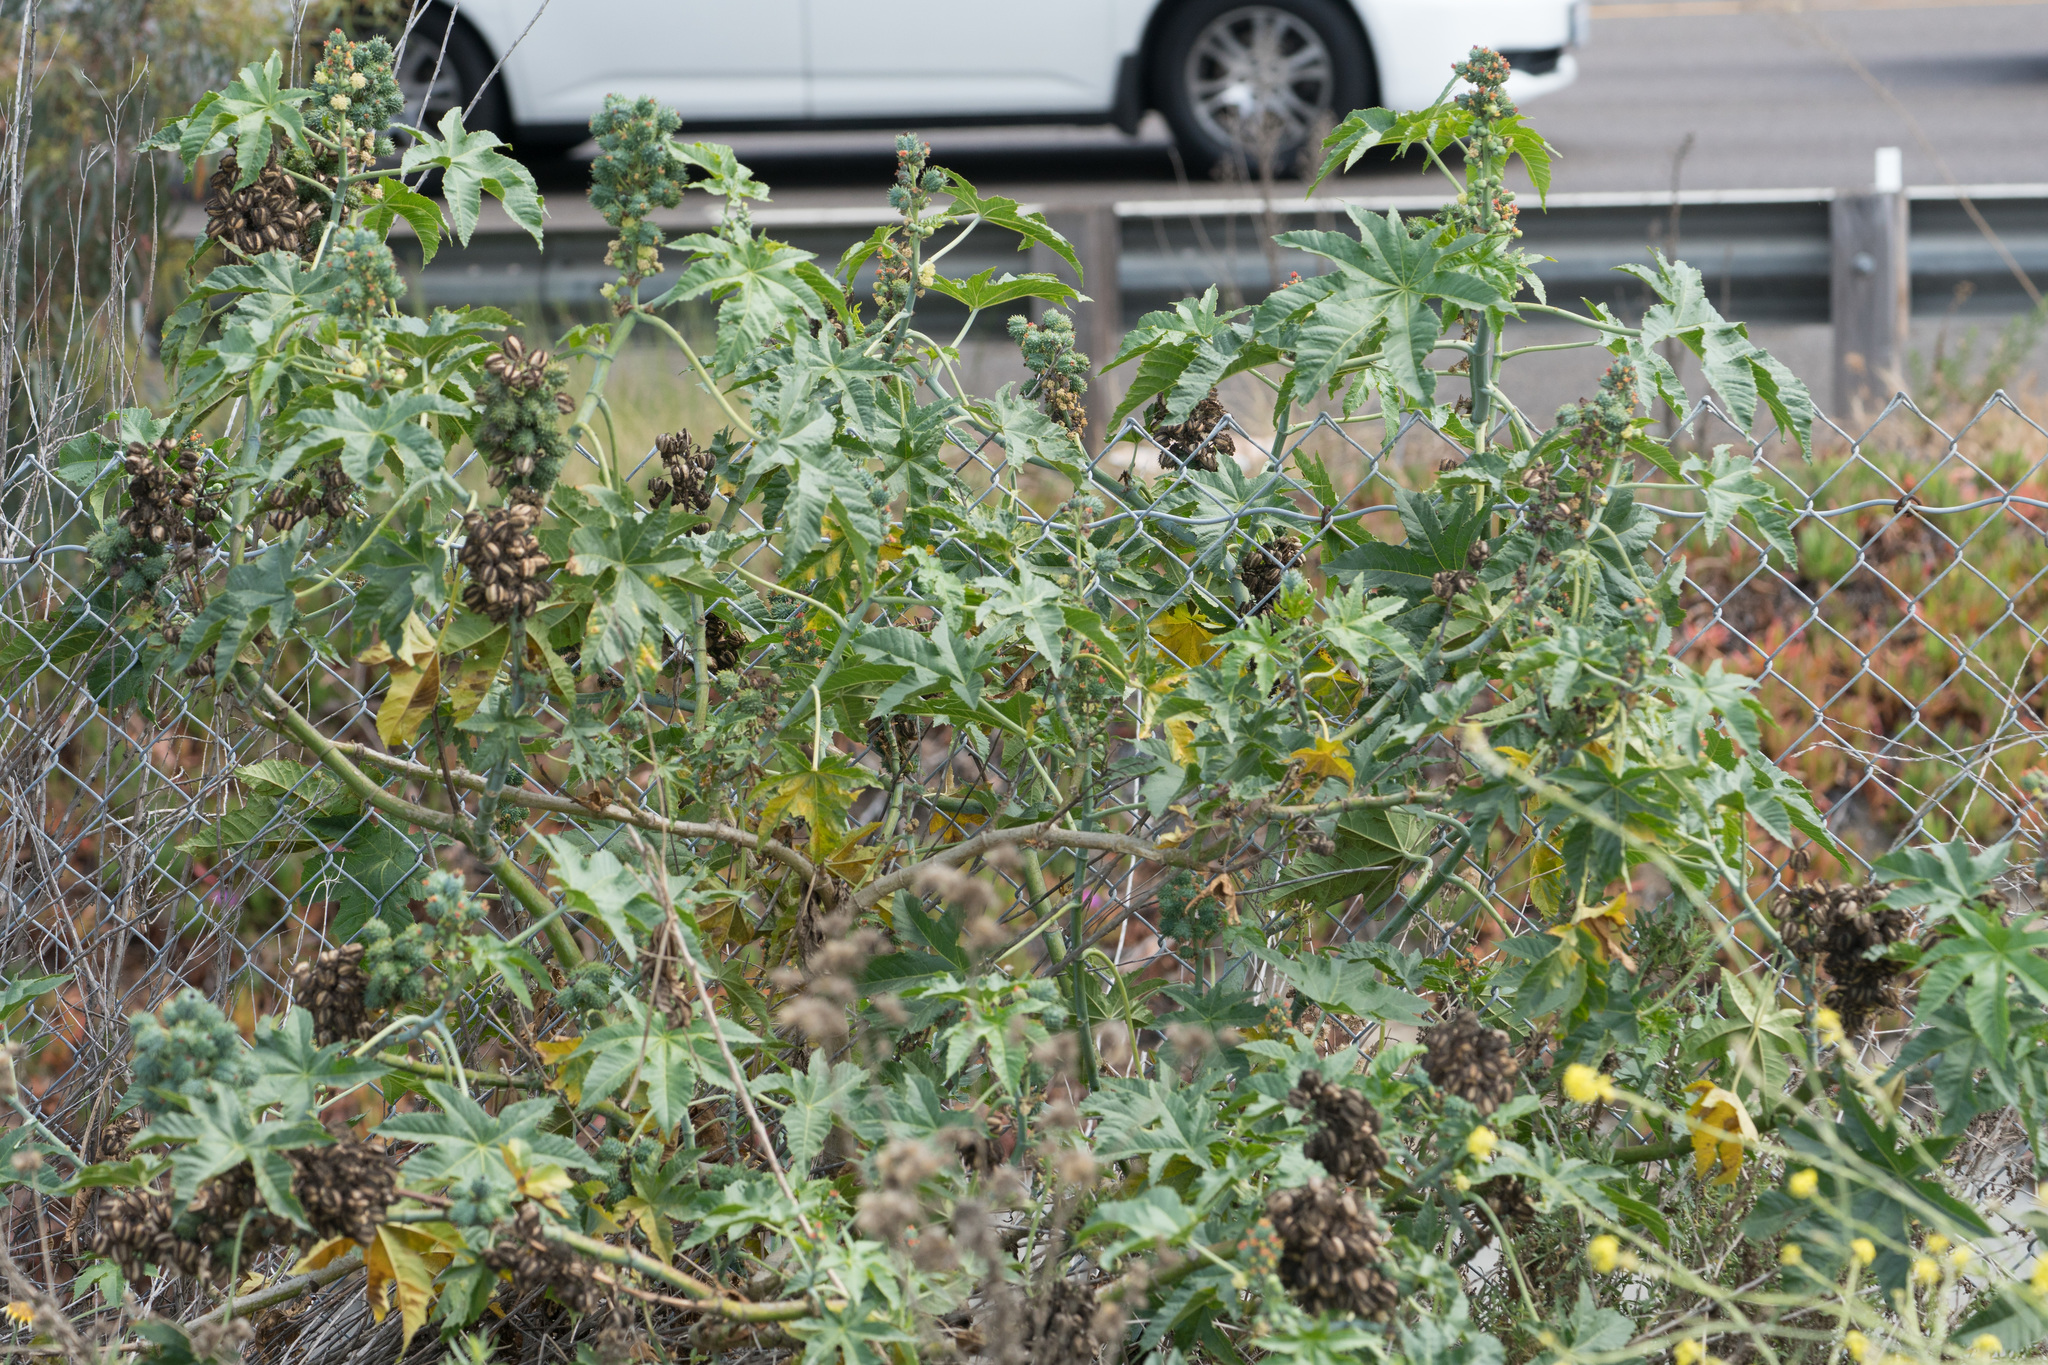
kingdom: Plantae
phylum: Tracheophyta
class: Magnoliopsida
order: Malpighiales
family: Euphorbiaceae
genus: Ricinus
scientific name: Ricinus communis
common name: Castor-oil-plant
